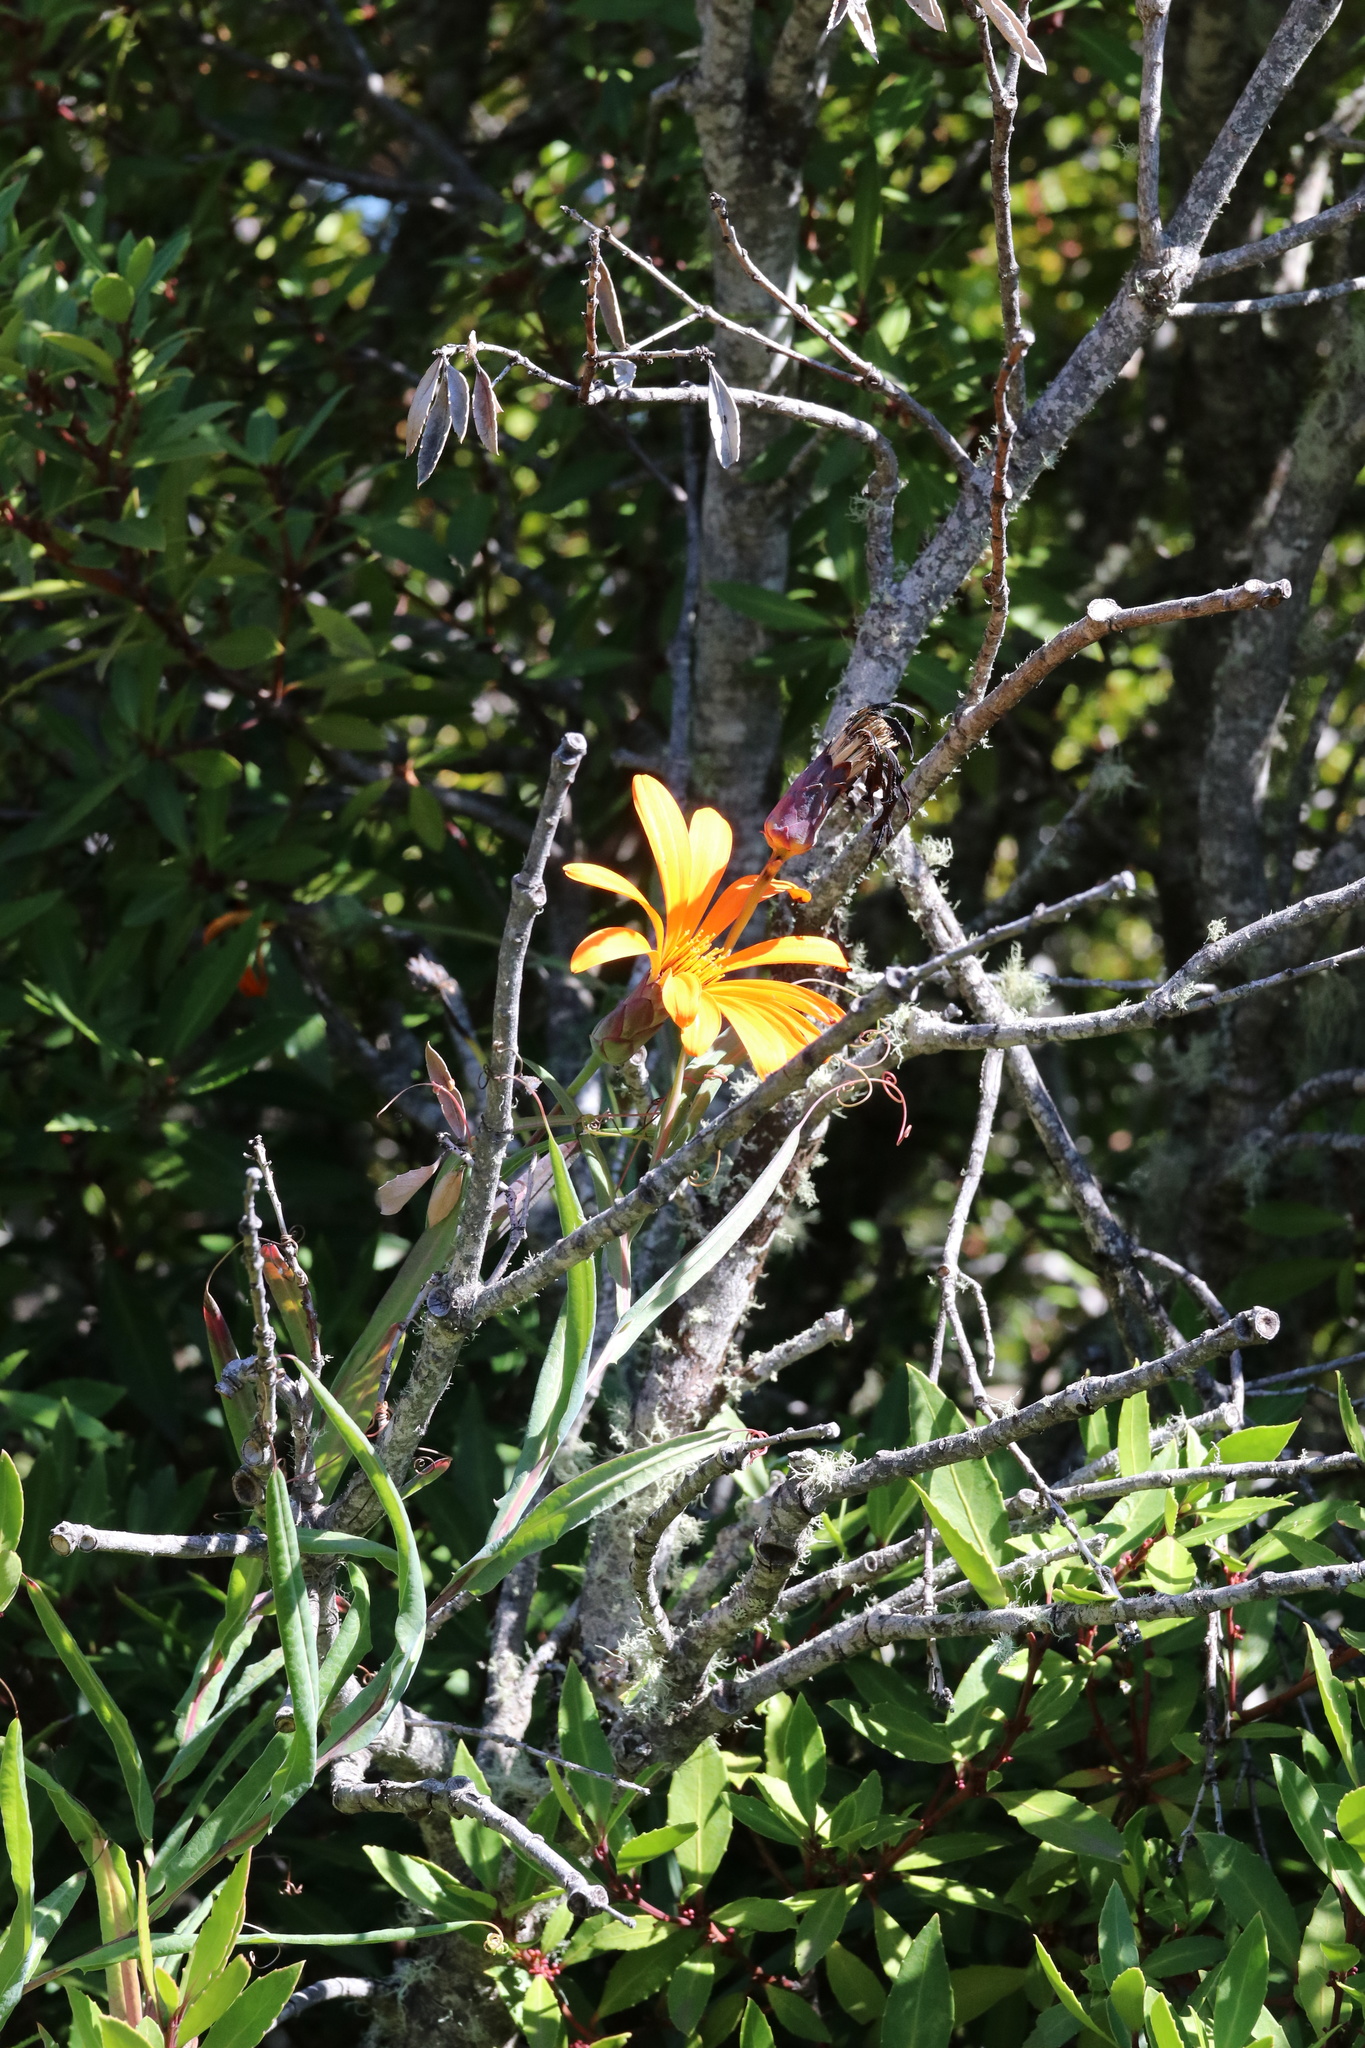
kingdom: Plantae
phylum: Tracheophyta
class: Magnoliopsida
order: Asterales
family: Asteraceae
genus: Mutisia
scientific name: Mutisia decurrens
